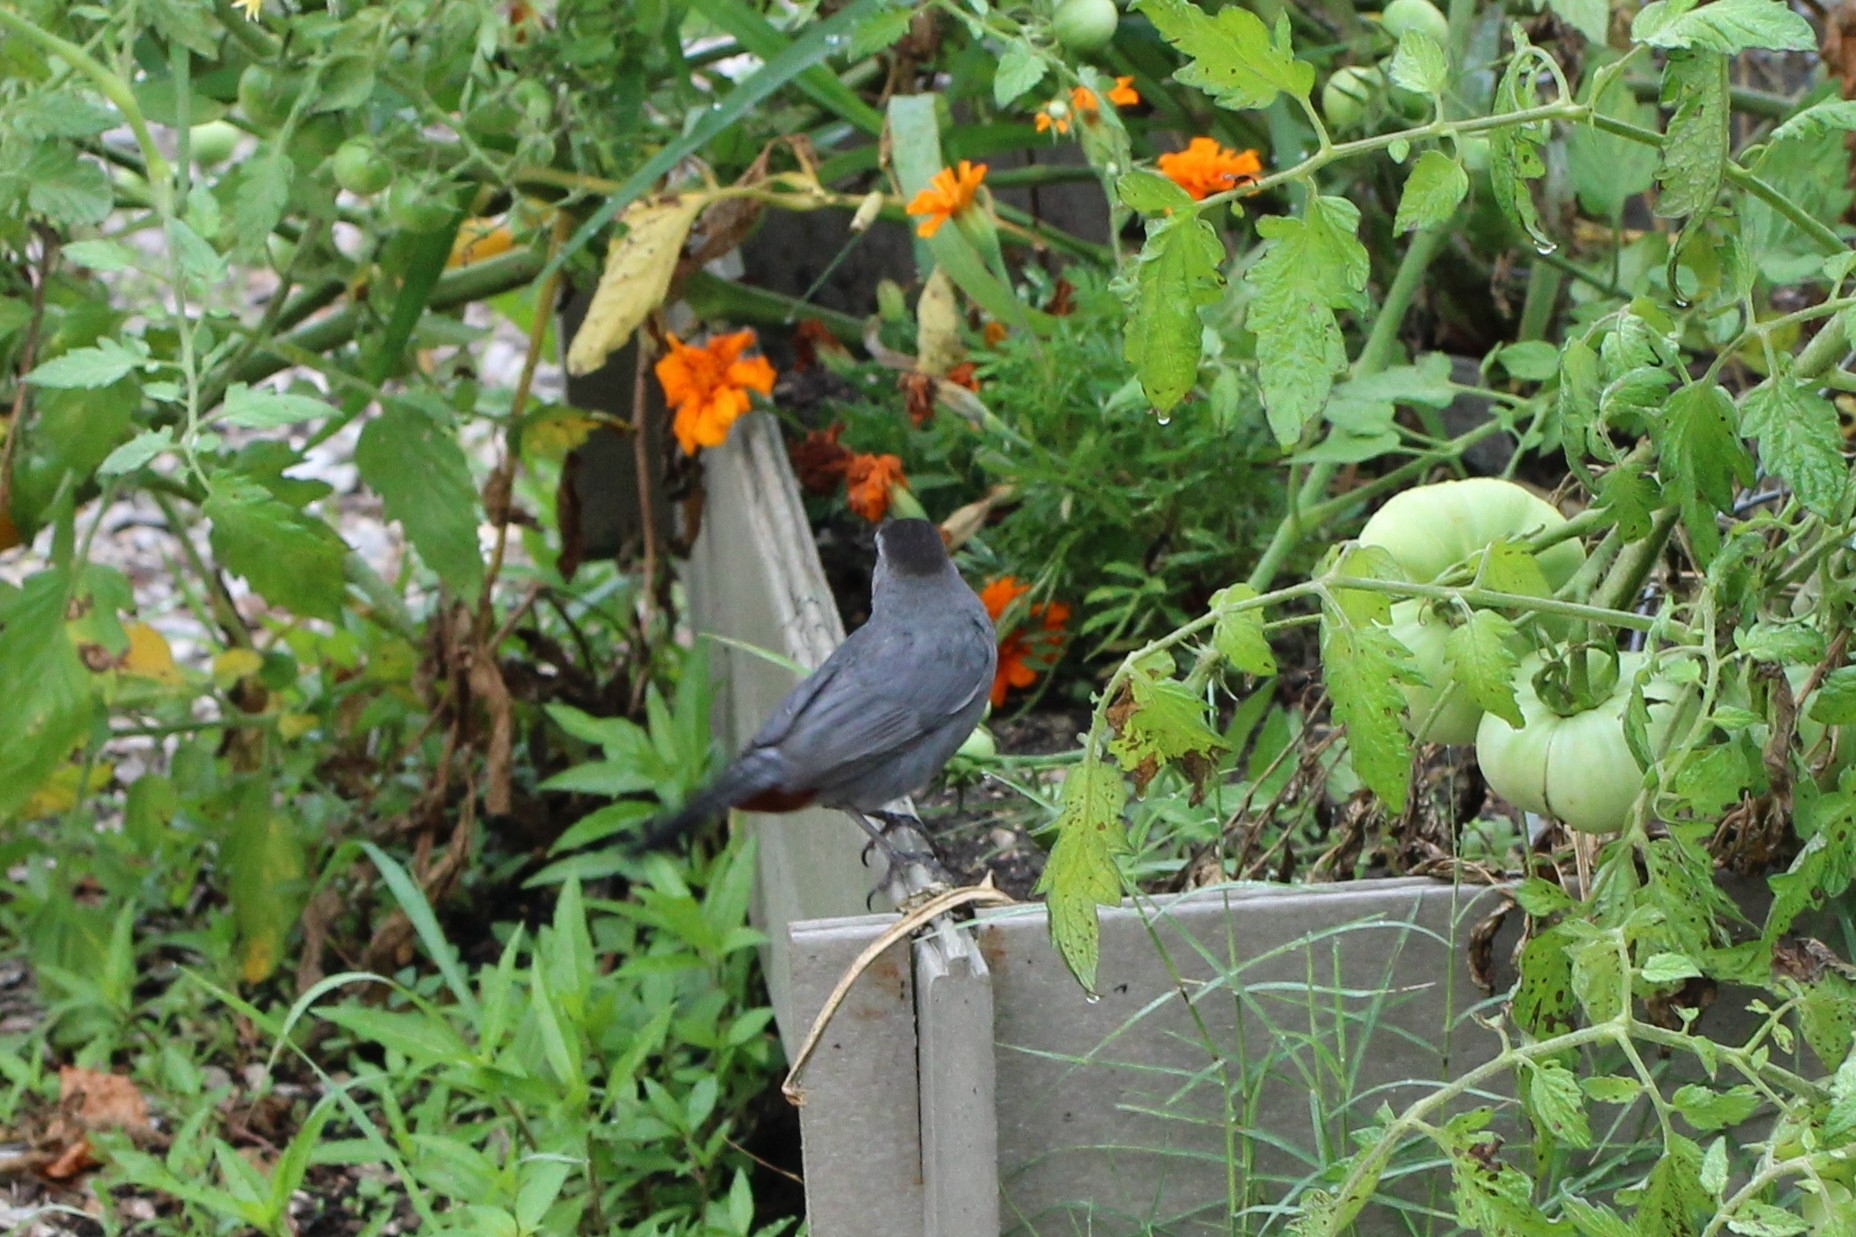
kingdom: Animalia
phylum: Chordata
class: Aves
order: Passeriformes
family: Mimidae
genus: Dumetella
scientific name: Dumetella carolinensis
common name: Gray catbird
